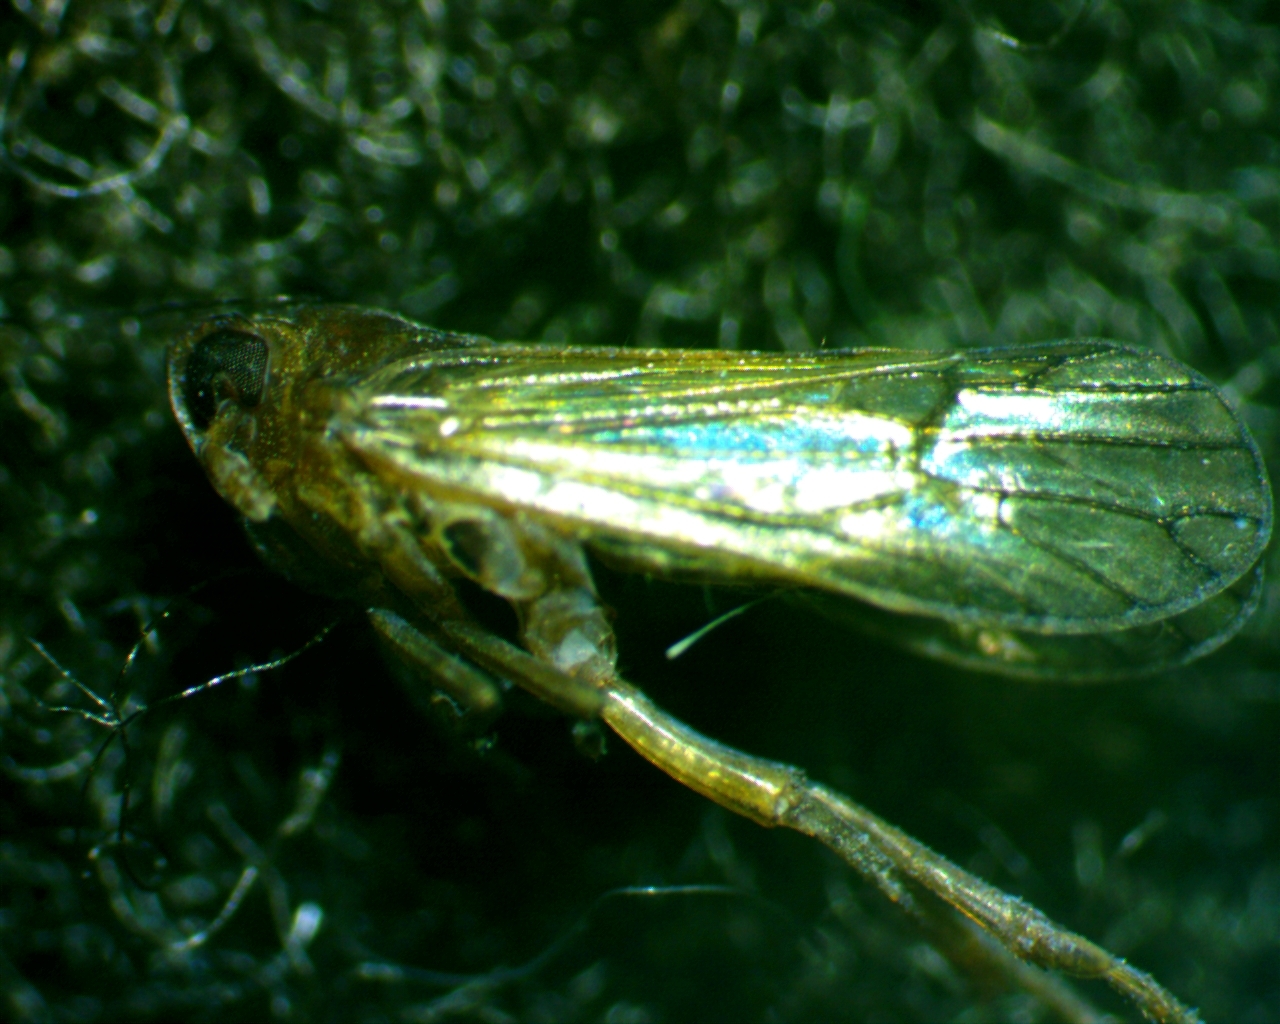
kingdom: Animalia
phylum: Arthropoda
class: Insecta
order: Hemiptera
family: Delphacidae
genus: Pareuidella
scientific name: Pareuidella weedi
